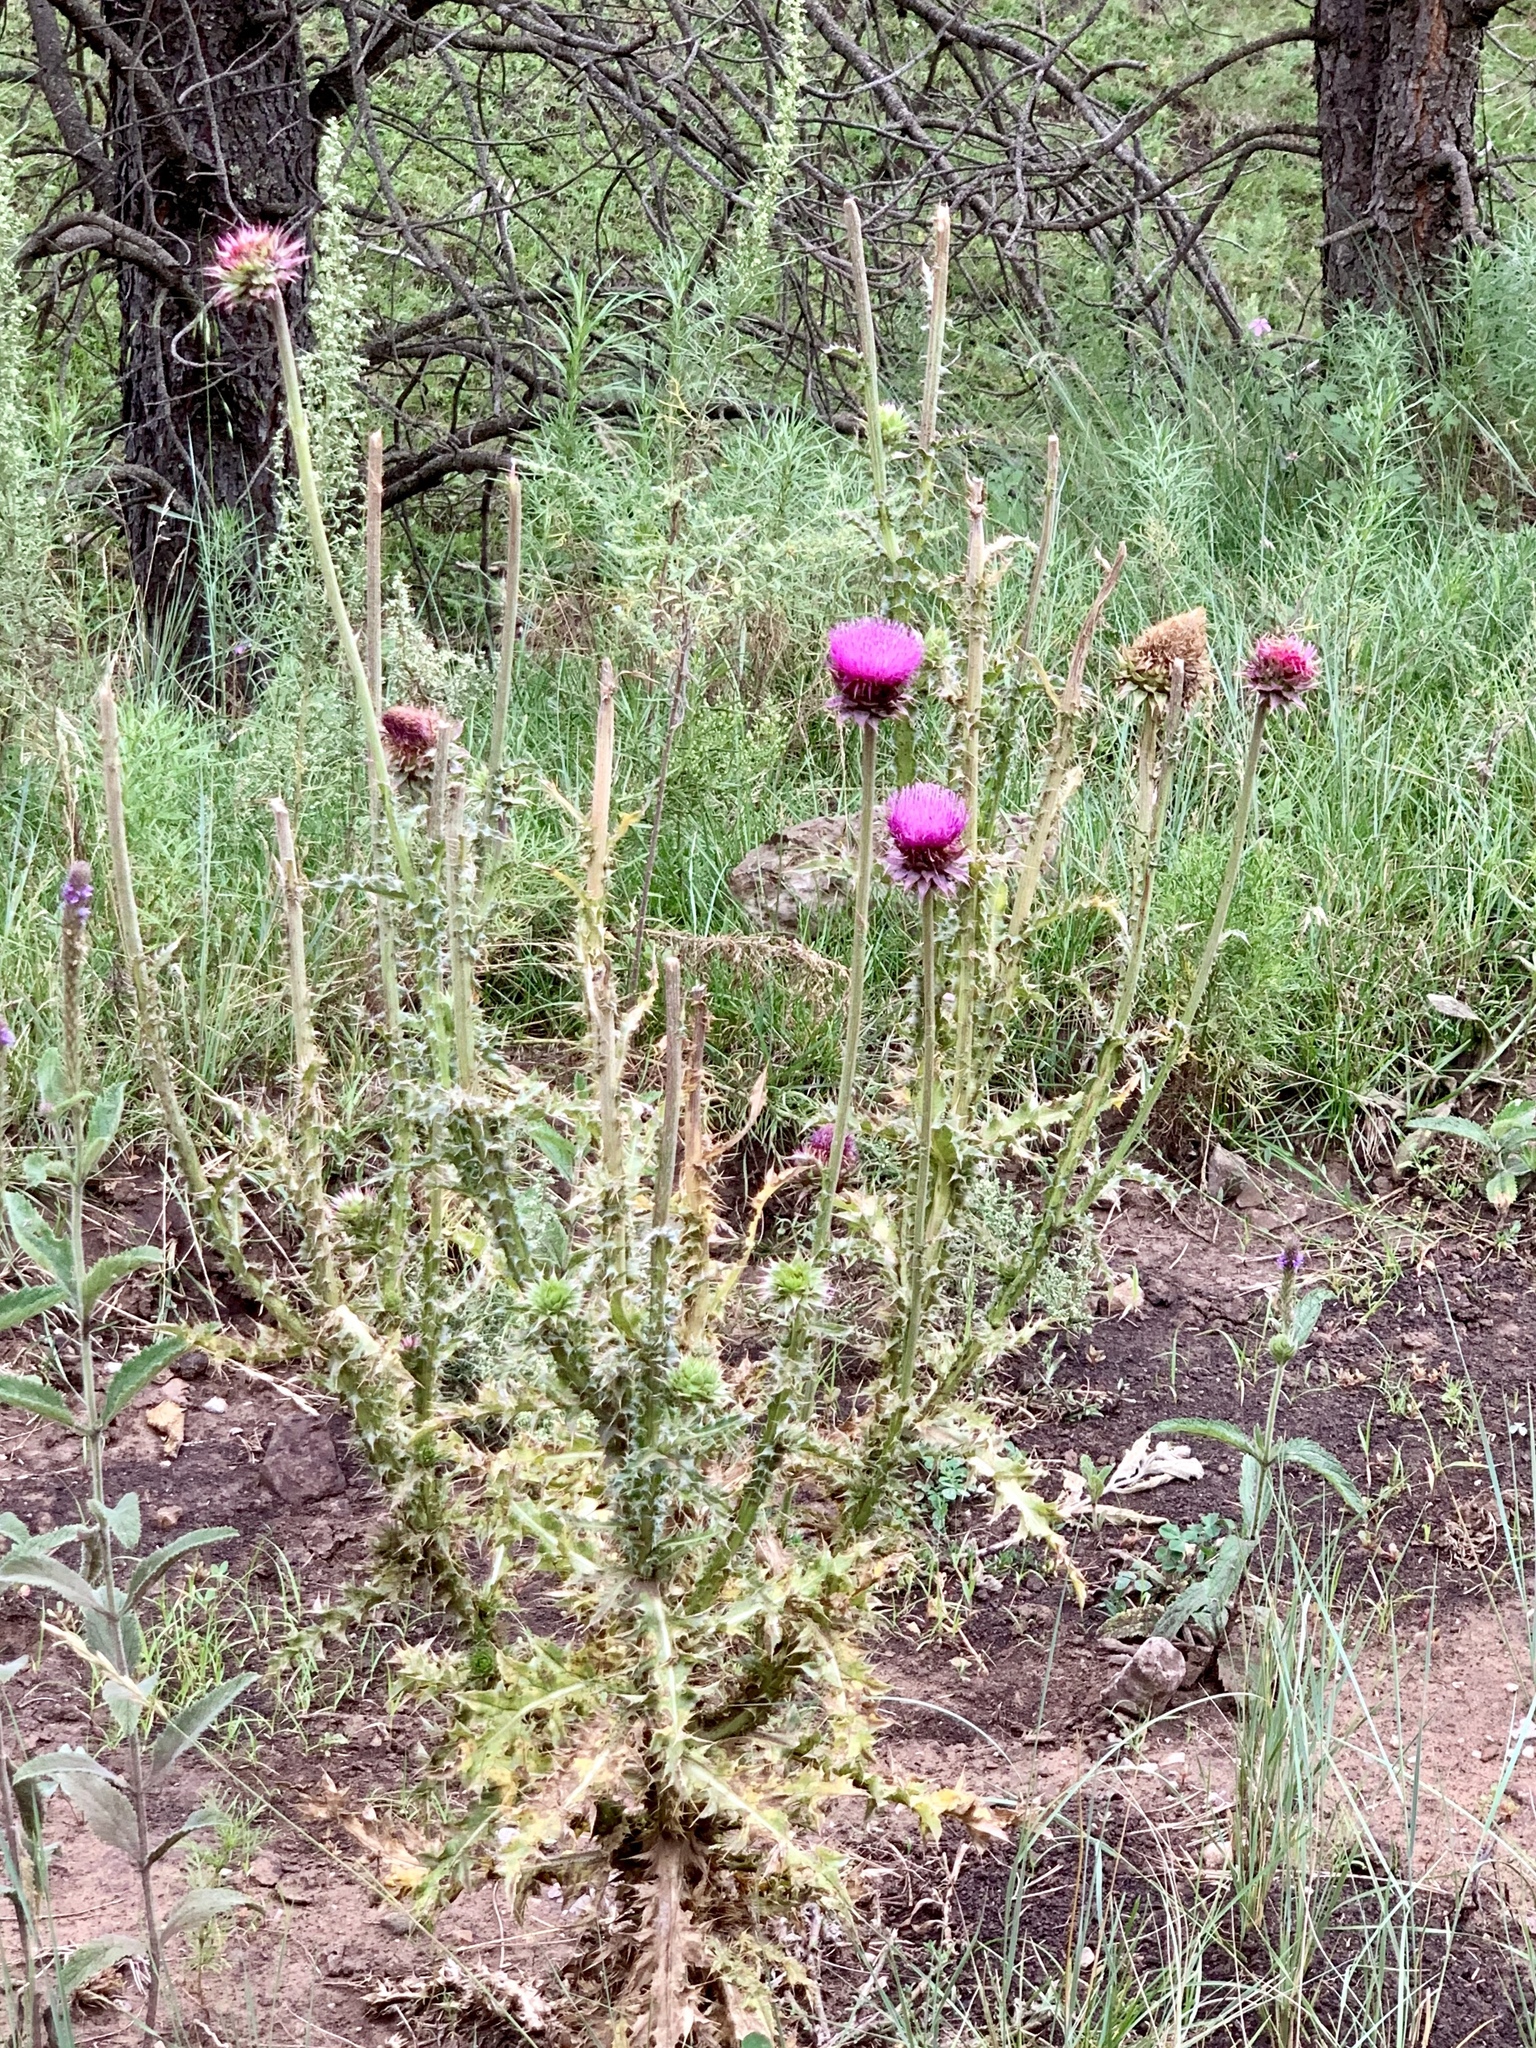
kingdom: Plantae
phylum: Tracheophyta
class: Magnoliopsida
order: Asterales
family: Asteraceae
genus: Carduus
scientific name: Carduus nutans
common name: Musk thistle
